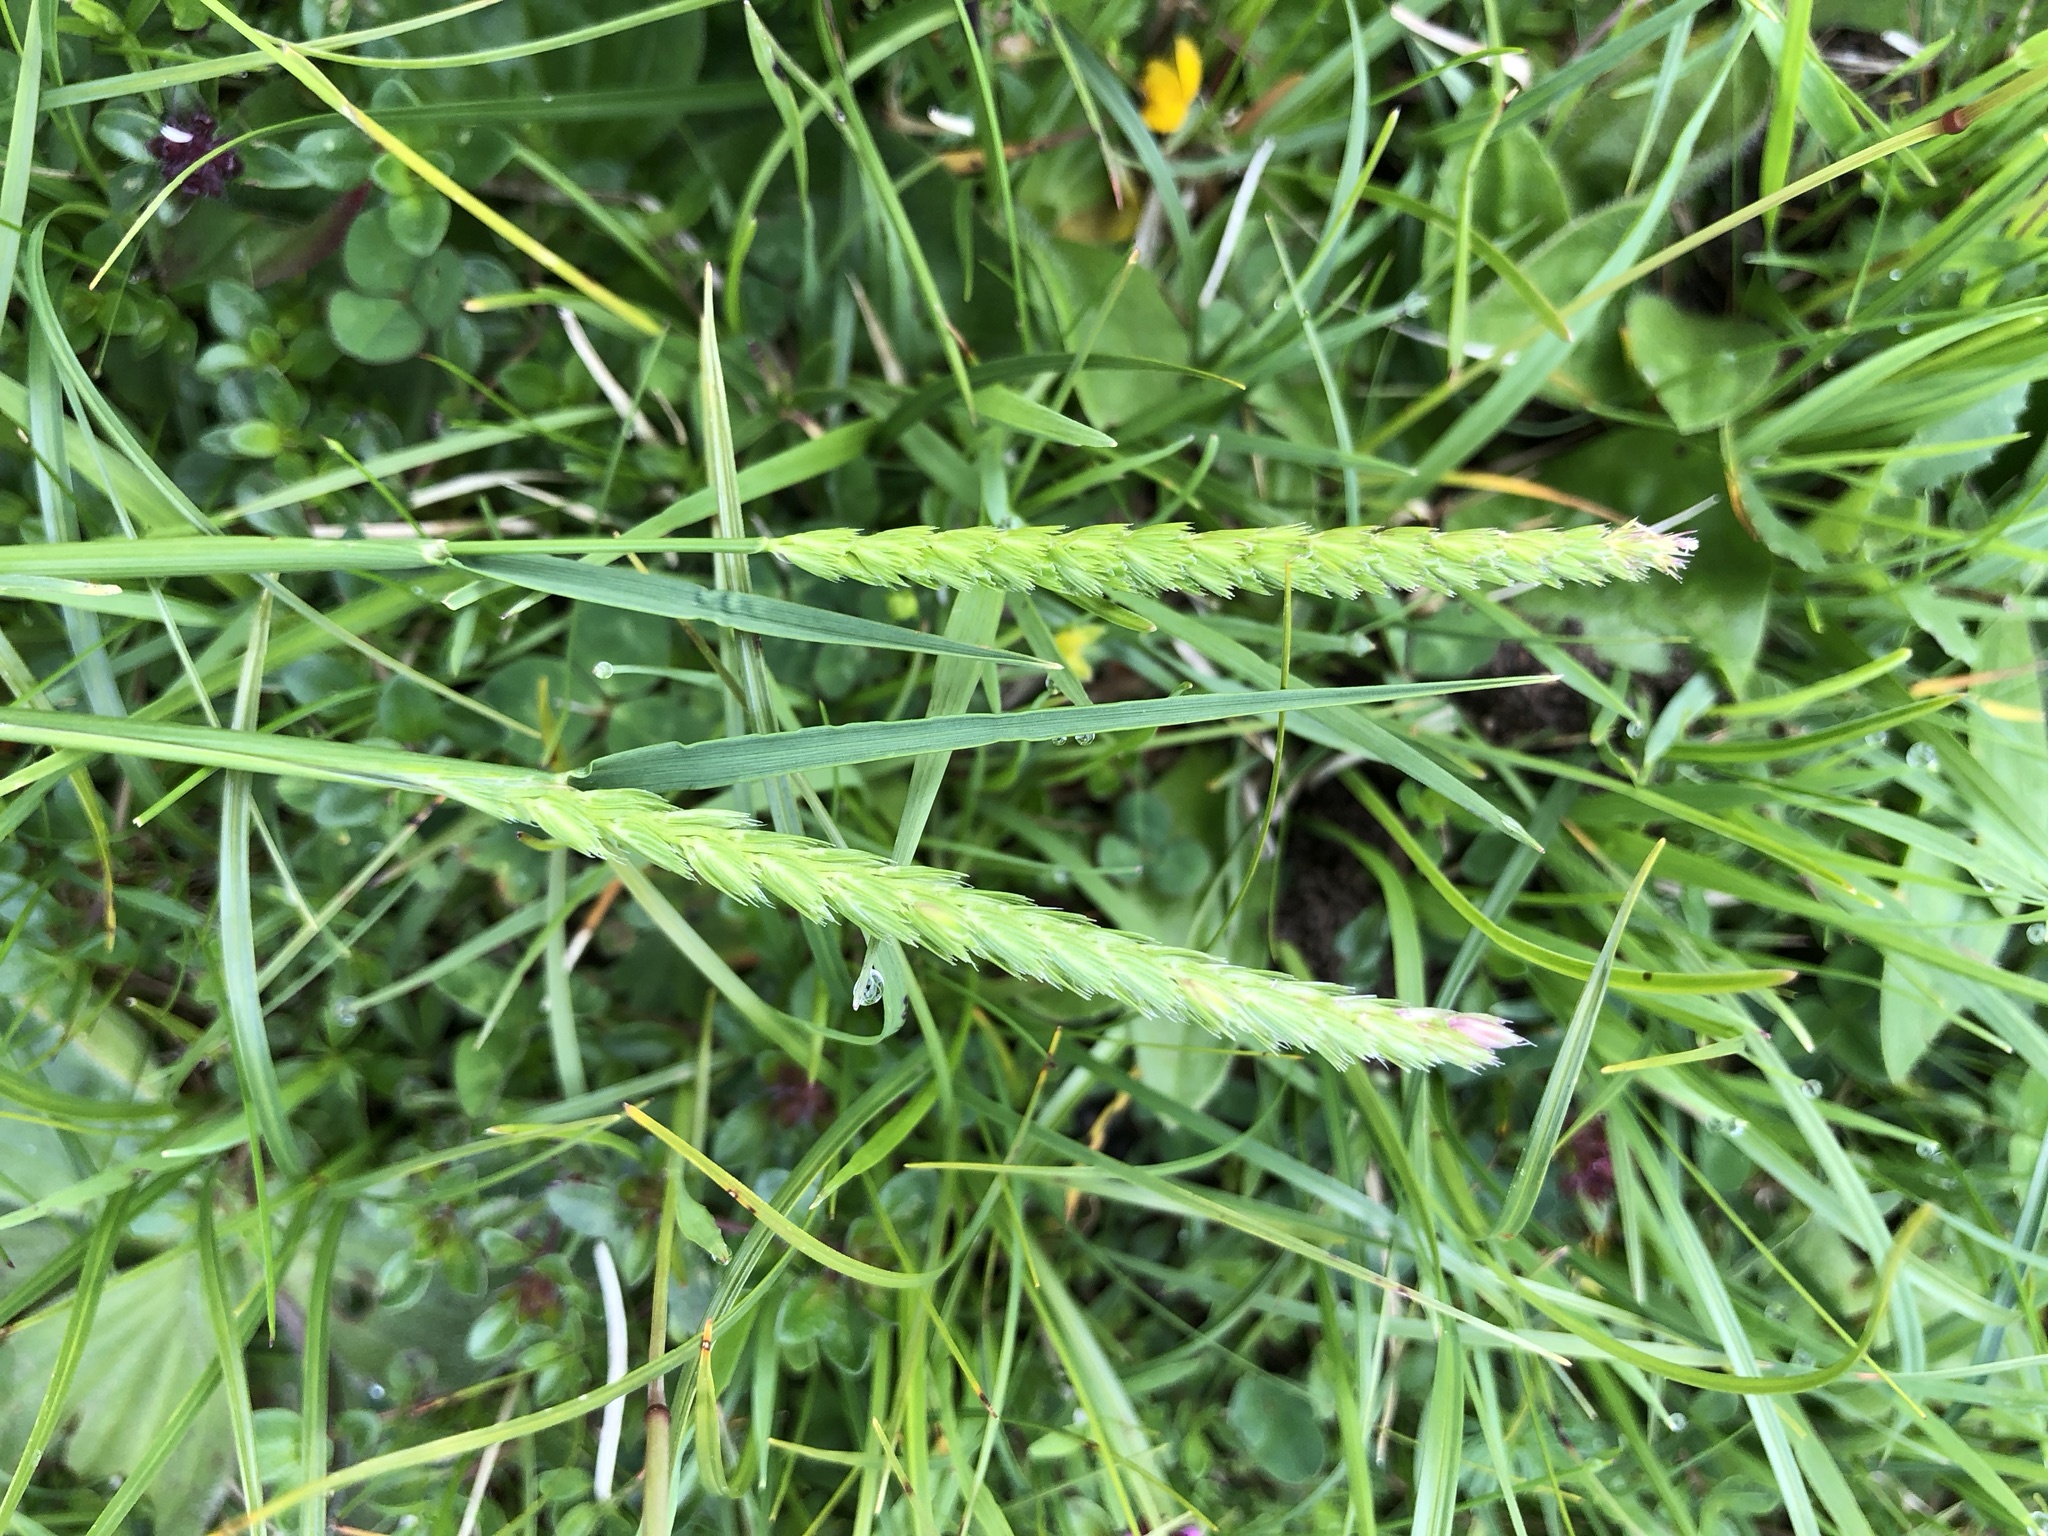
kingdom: Plantae
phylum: Tracheophyta
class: Liliopsida
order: Poales
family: Poaceae
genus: Cynosurus
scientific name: Cynosurus cristatus
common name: Crested dog's-tail
